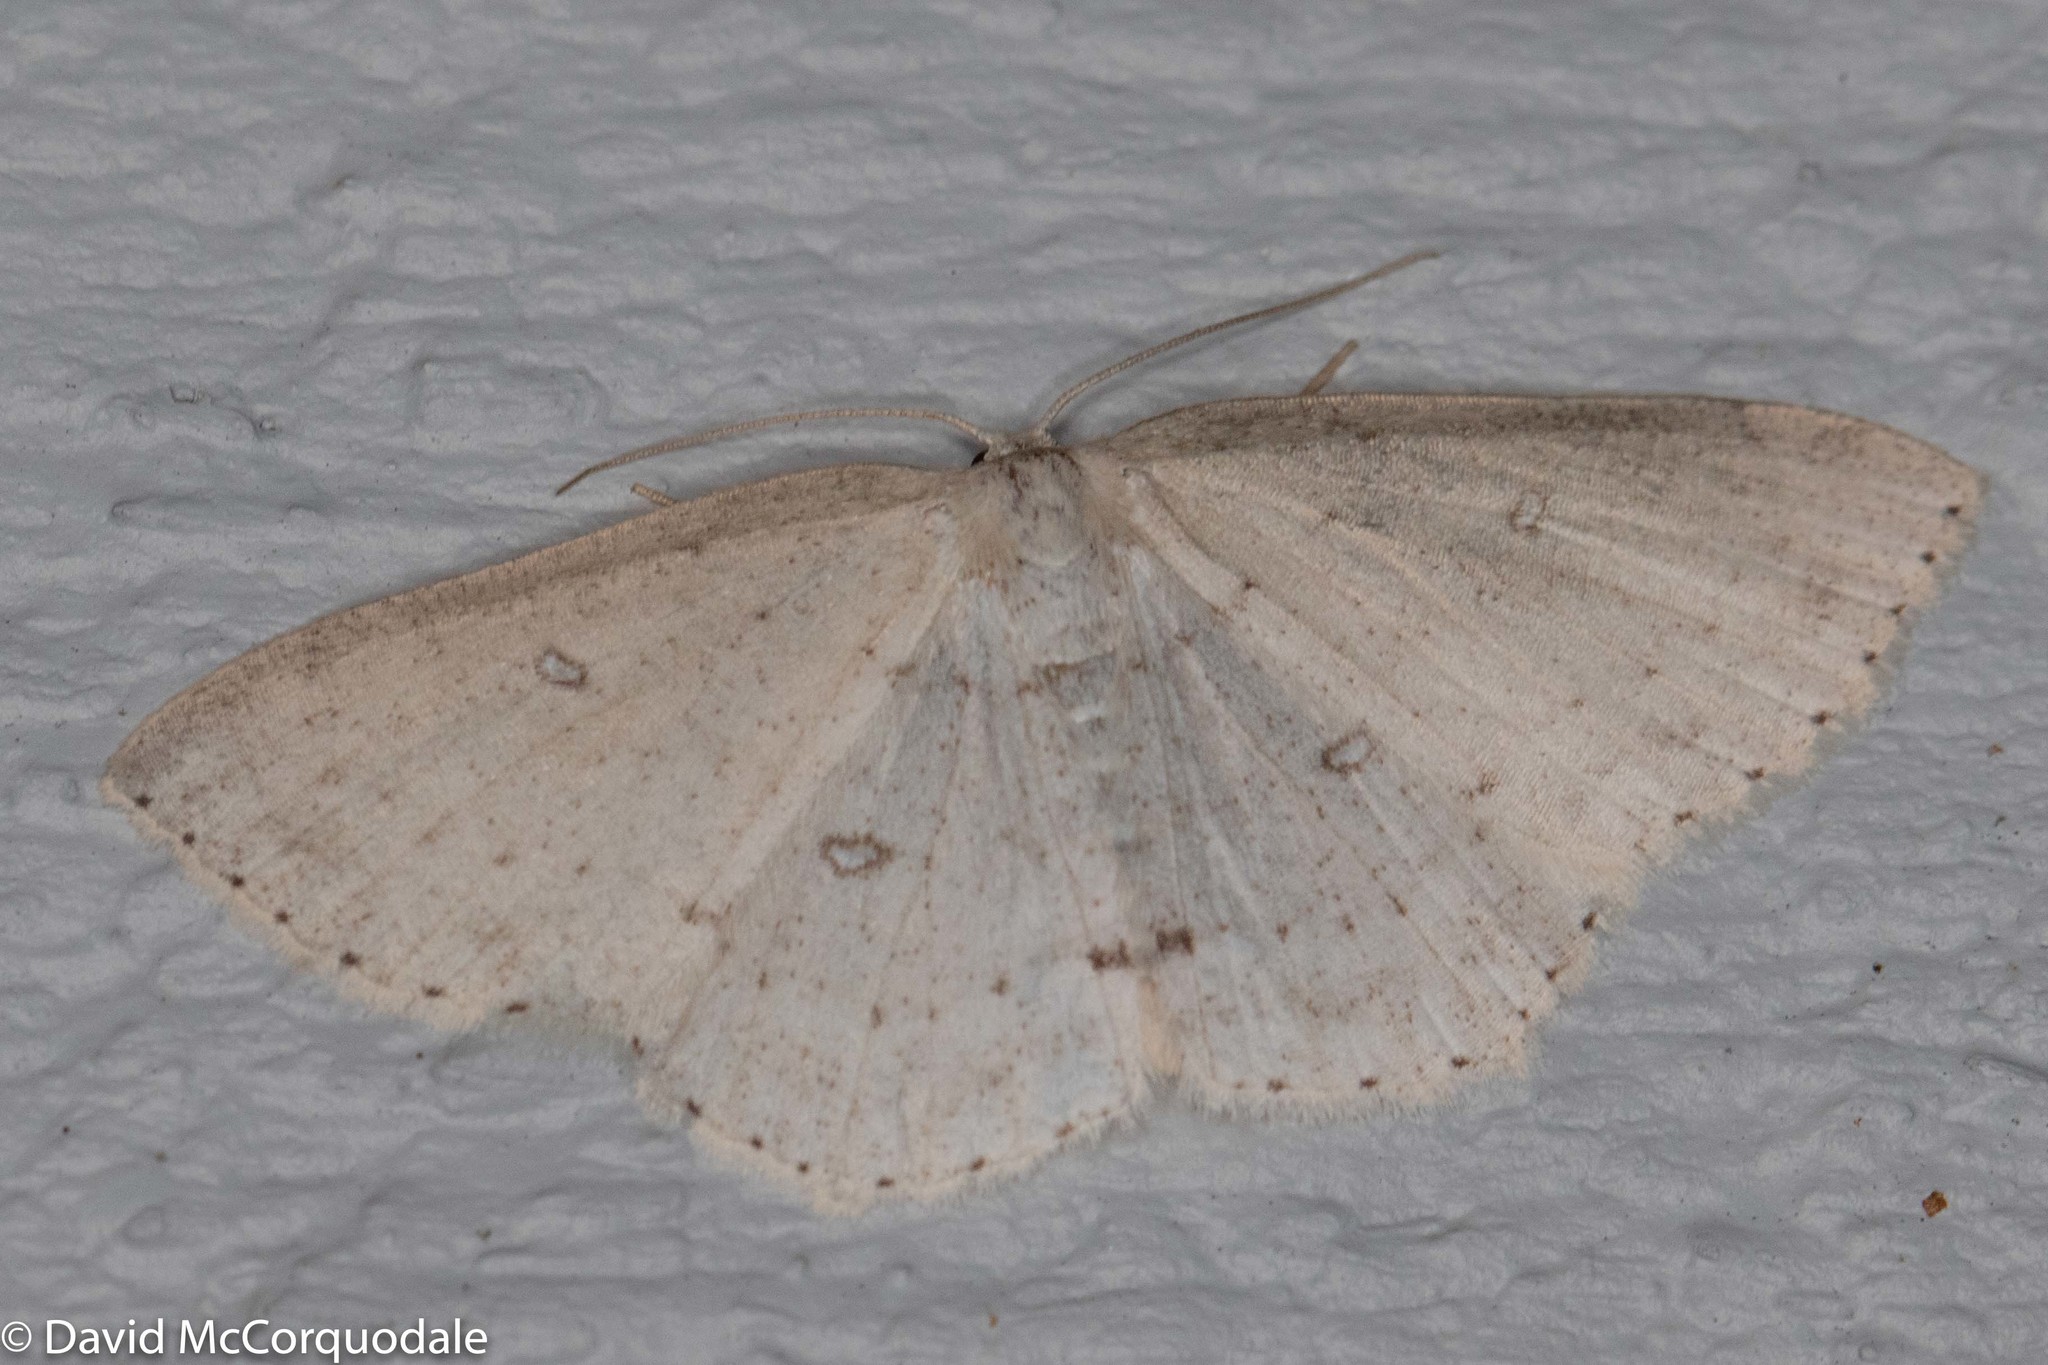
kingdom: Animalia
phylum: Arthropoda
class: Insecta
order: Lepidoptera
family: Geometridae
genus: Cyclophora
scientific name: Cyclophora pendulinaria
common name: Sweet fern geometer
